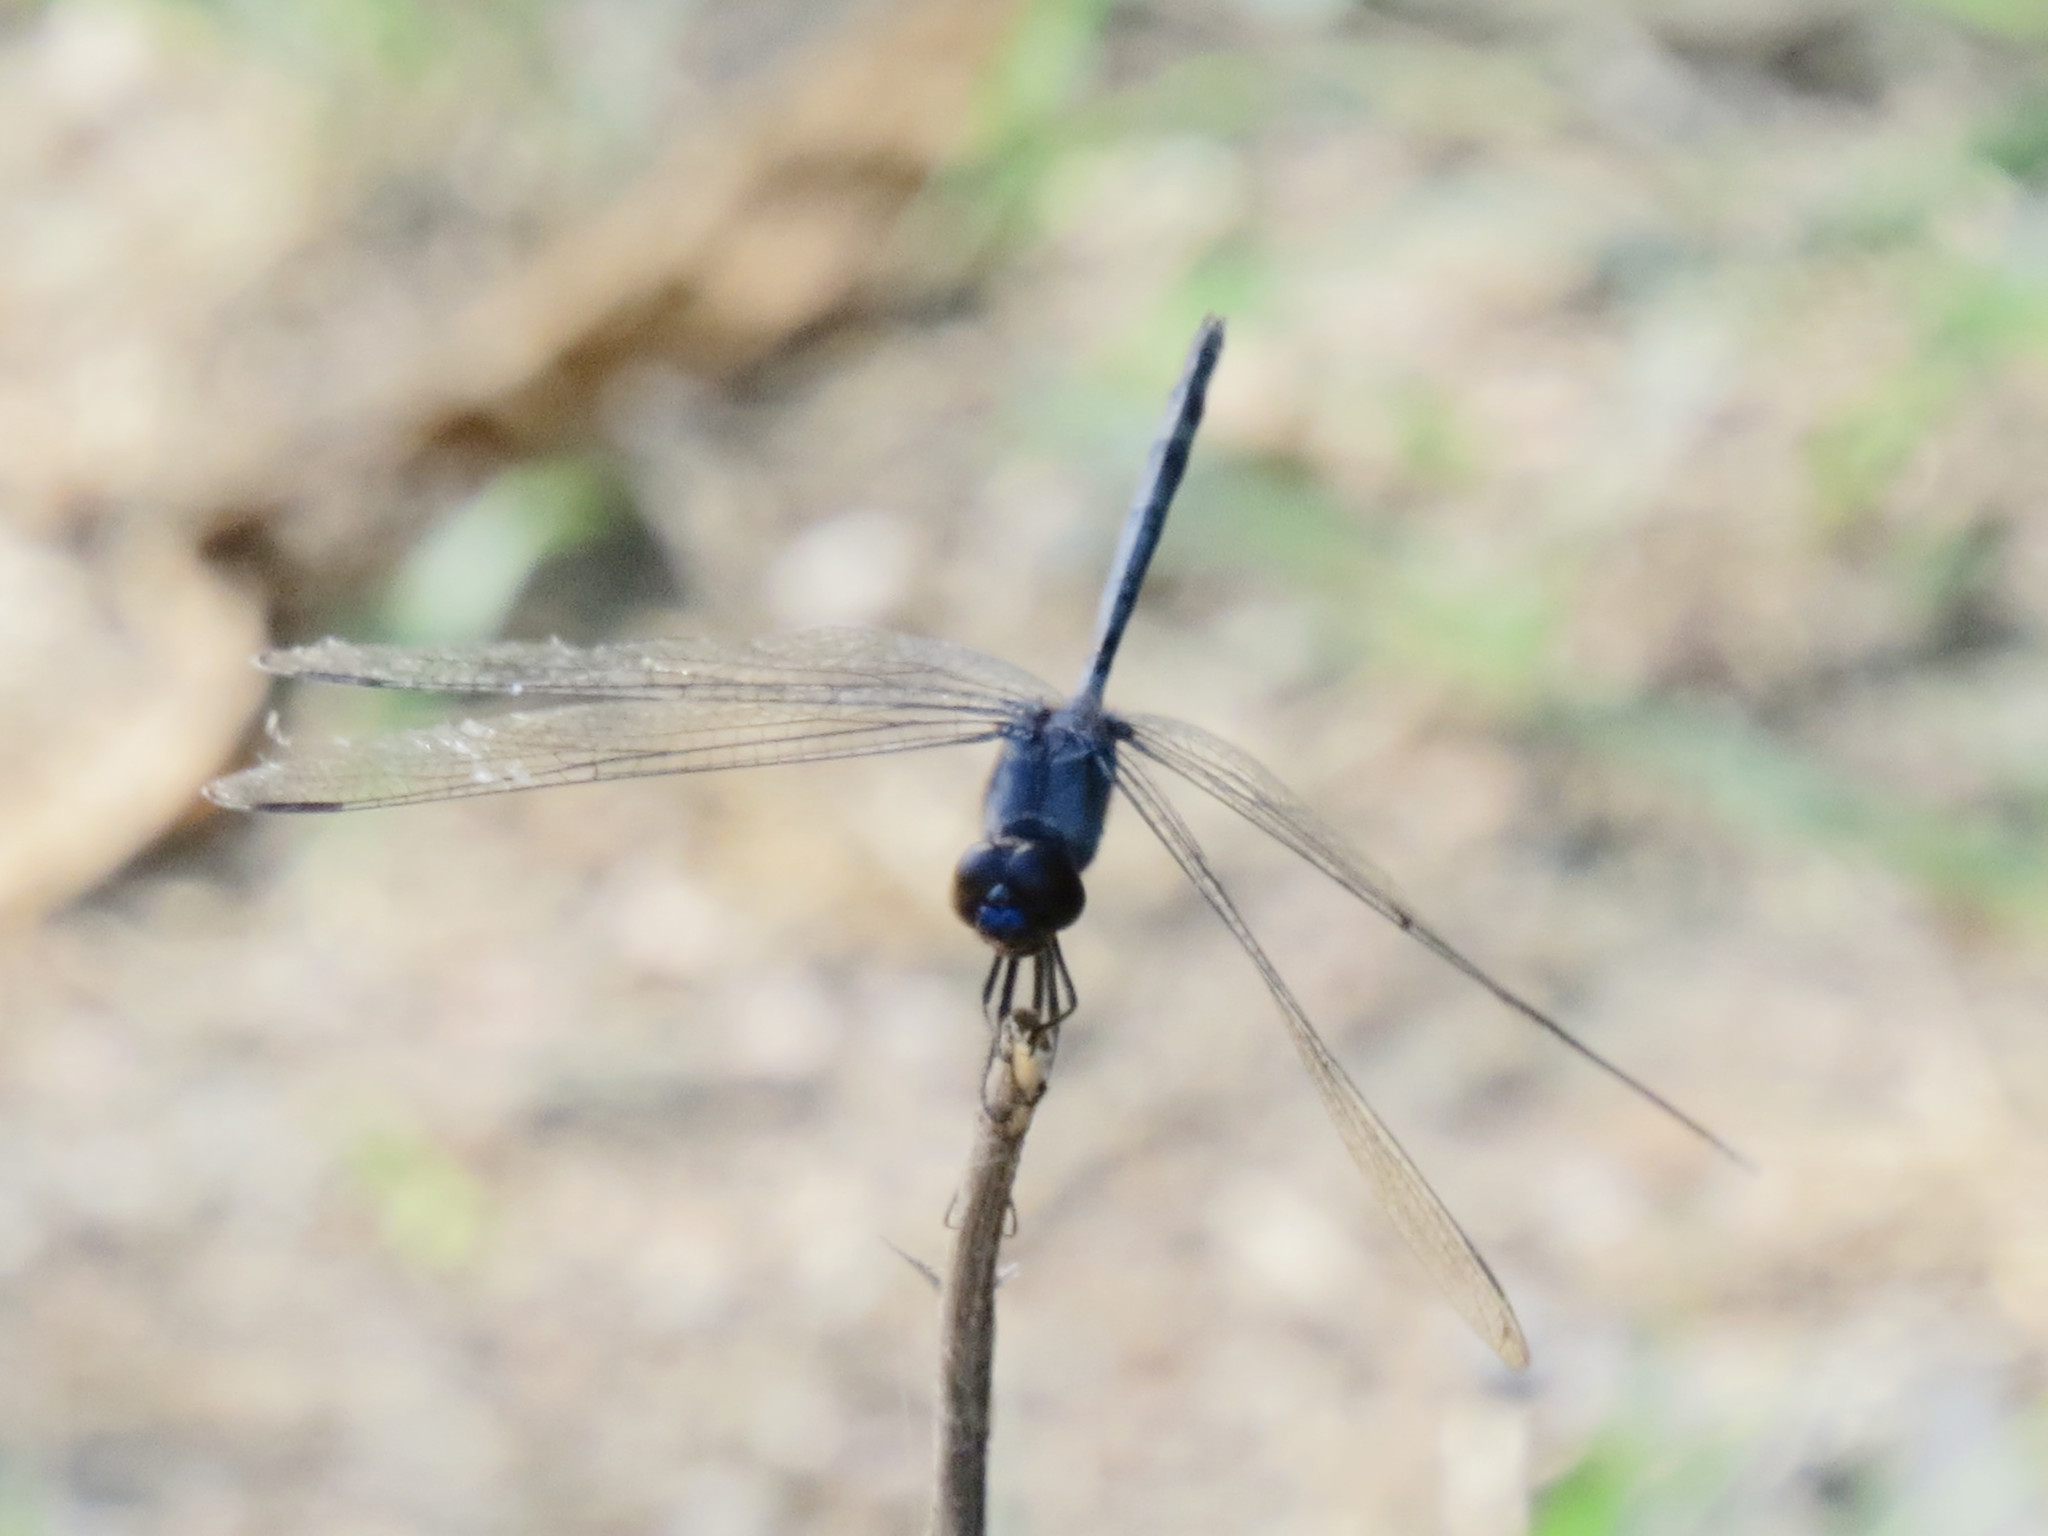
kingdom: Animalia
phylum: Arthropoda
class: Insecta
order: Odonata
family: Libellulidae
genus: Dythemis
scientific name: Dythemis nigrescens
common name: Black setwing
